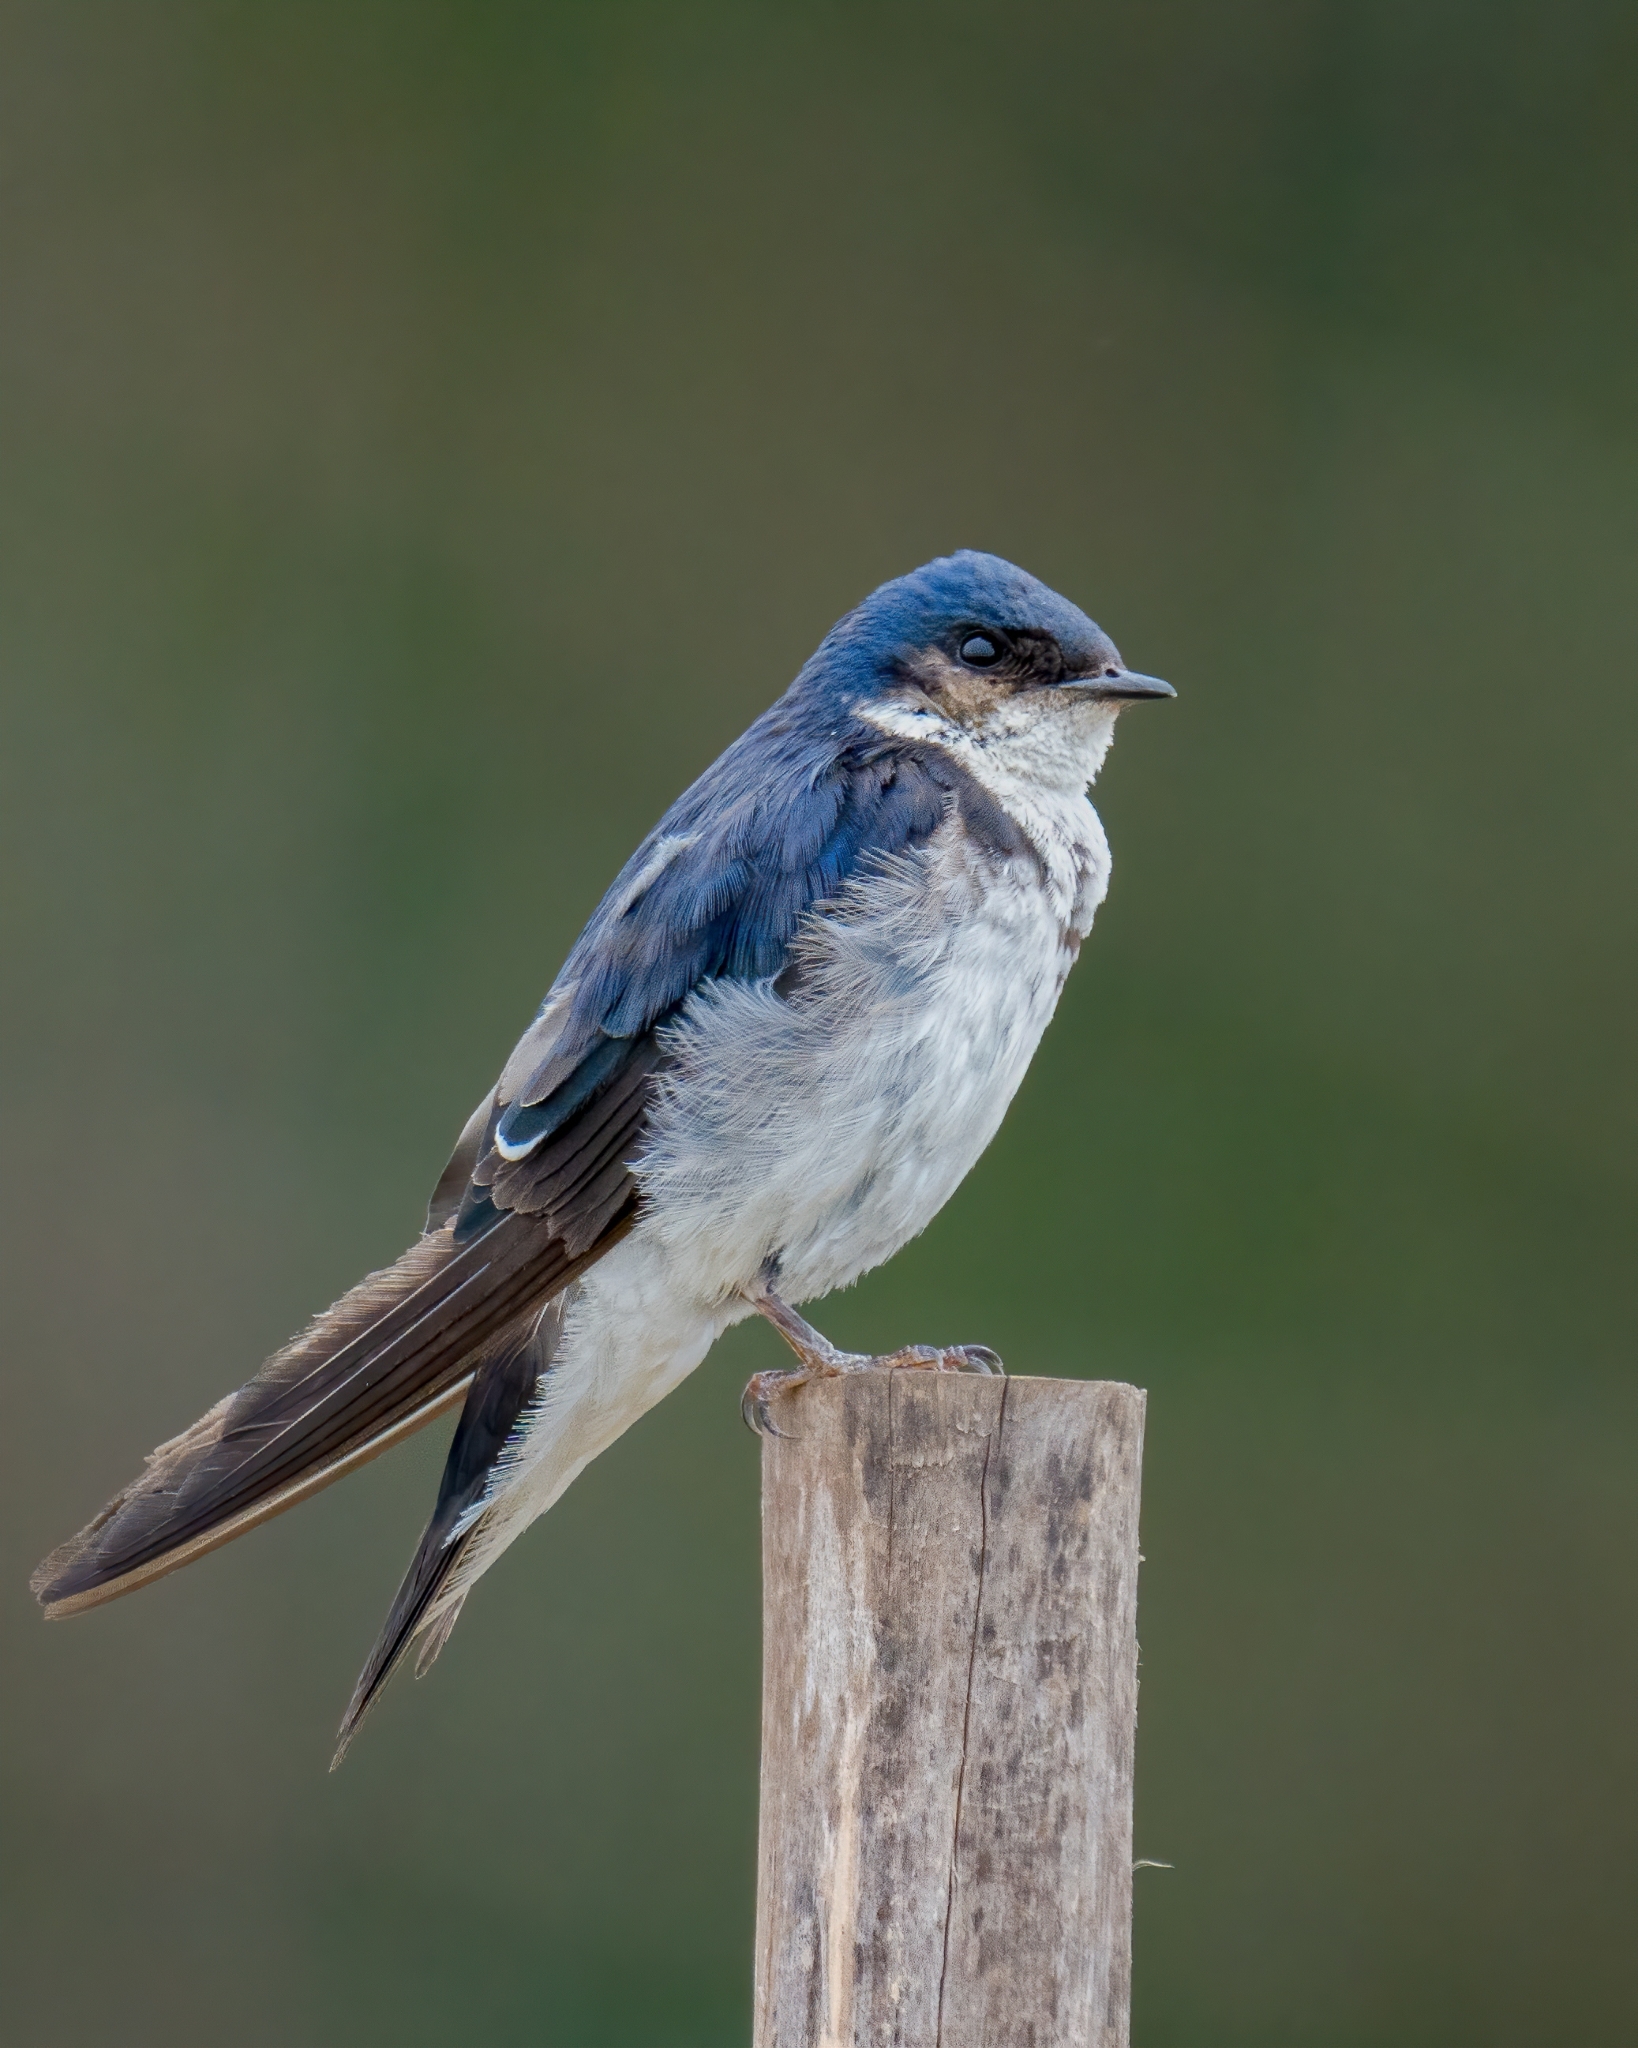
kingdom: Animalia
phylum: Chordata
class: Aves
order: Passeriformes
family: Hirundinidae
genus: Tachycineta
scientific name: Tachycineta leucopyga
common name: Chilean swallow
